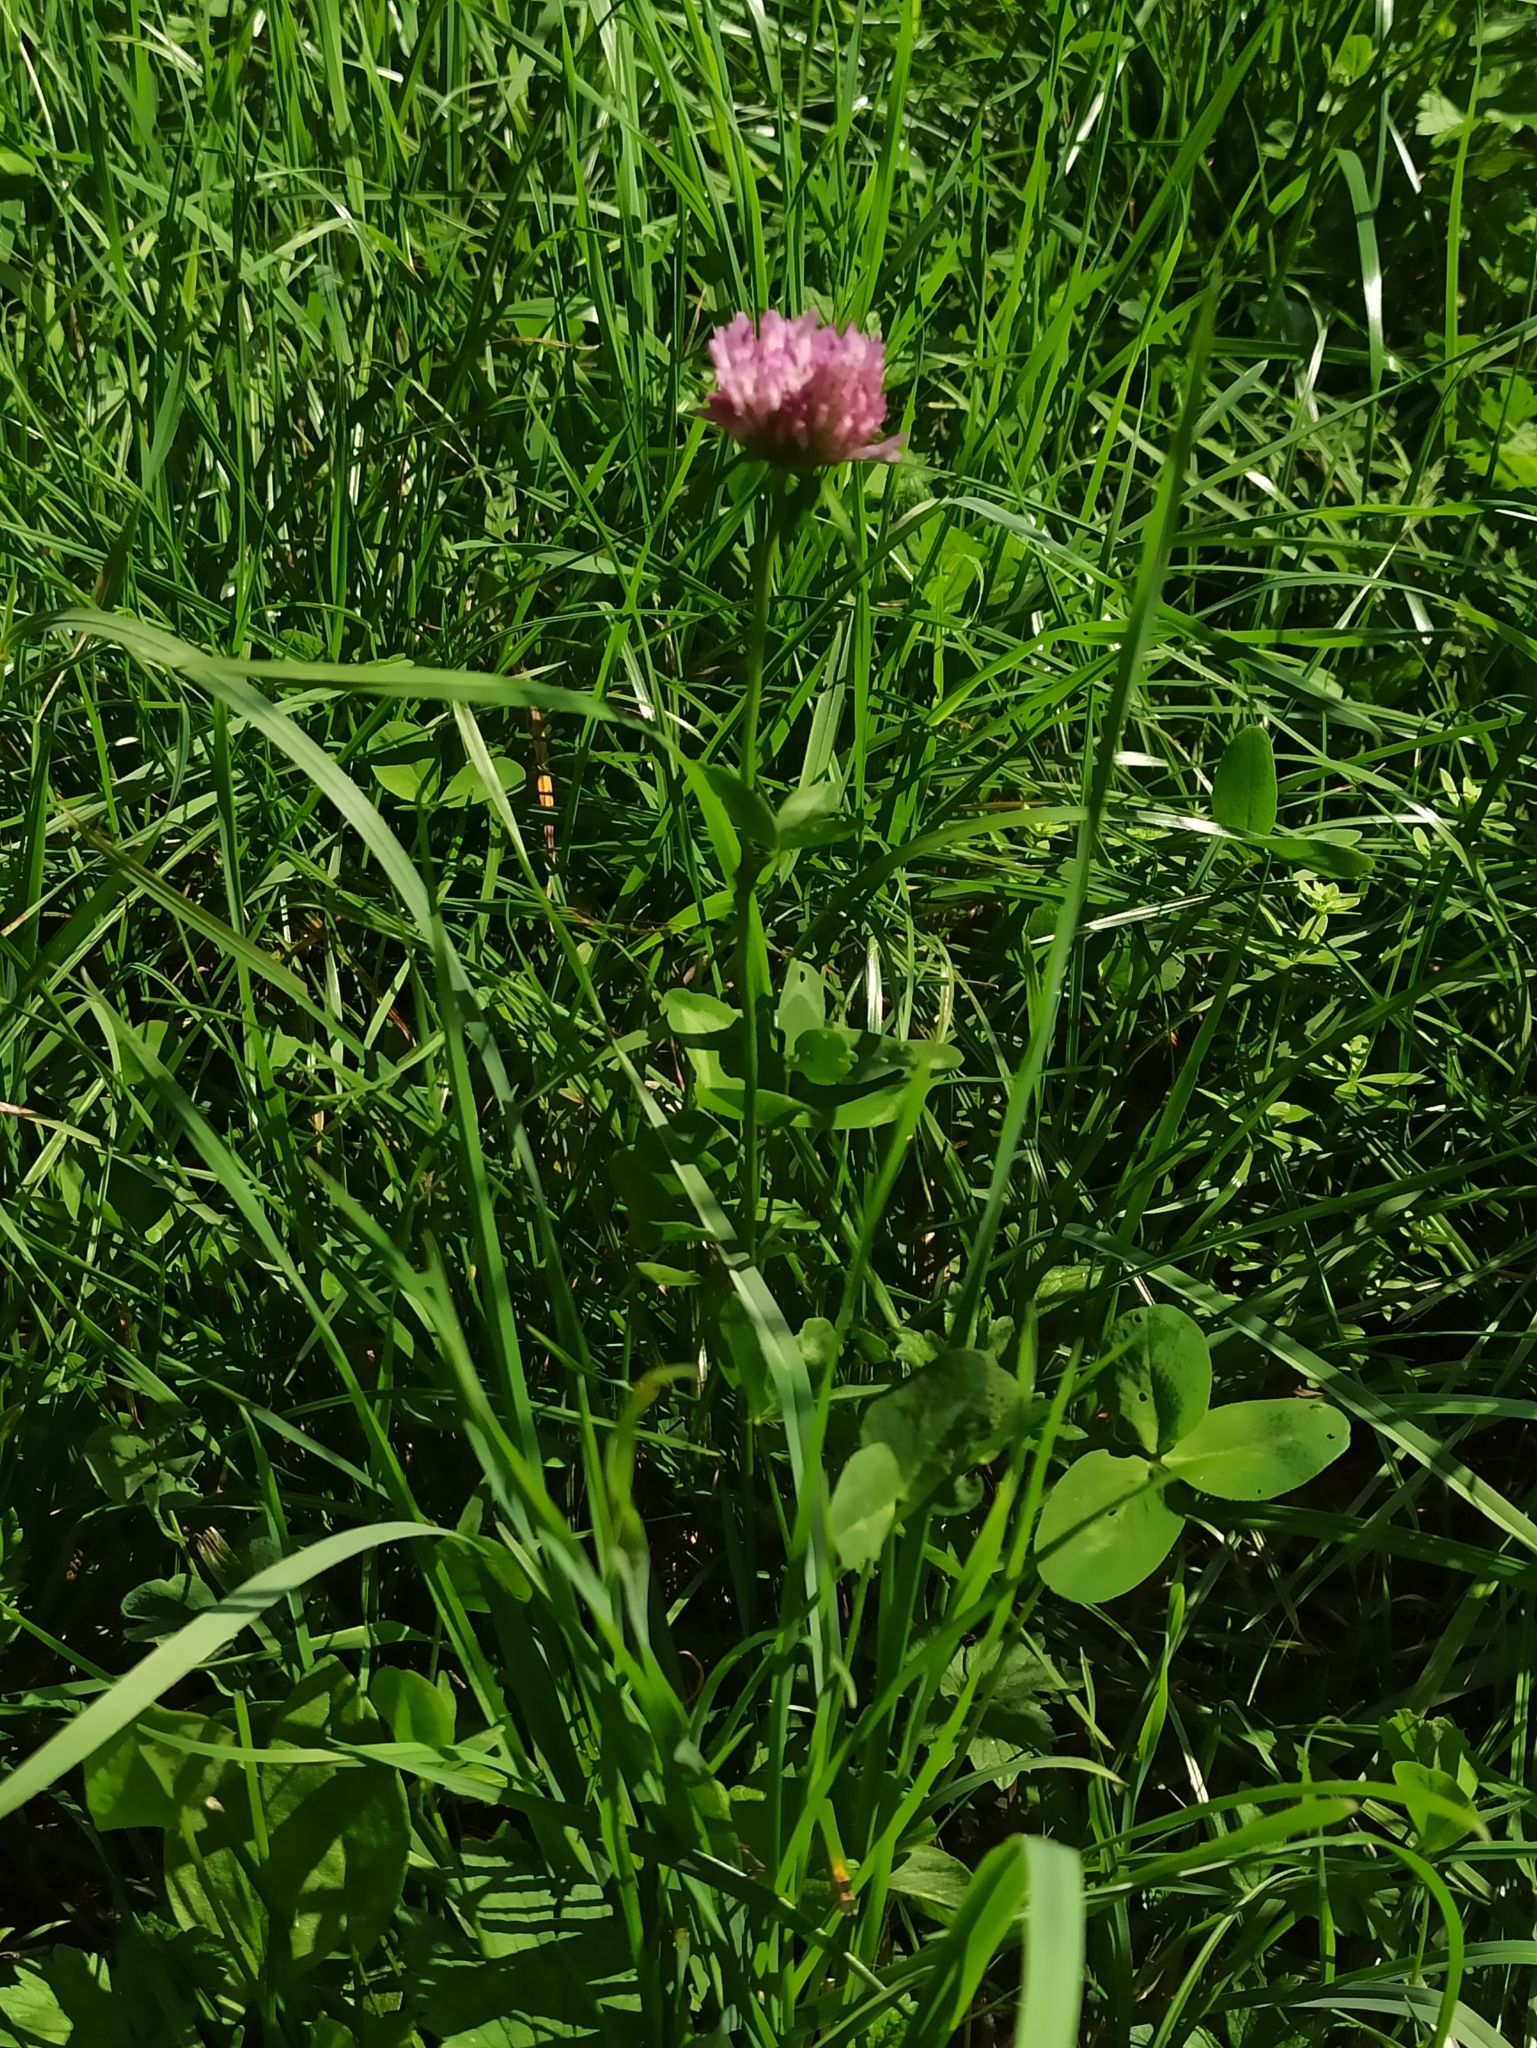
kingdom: Plantae
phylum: Tracheophyta
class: Magnoliopsida
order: Fabales
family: Fabaceae
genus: Trifolium
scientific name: Trifolium pratense
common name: Red clover
